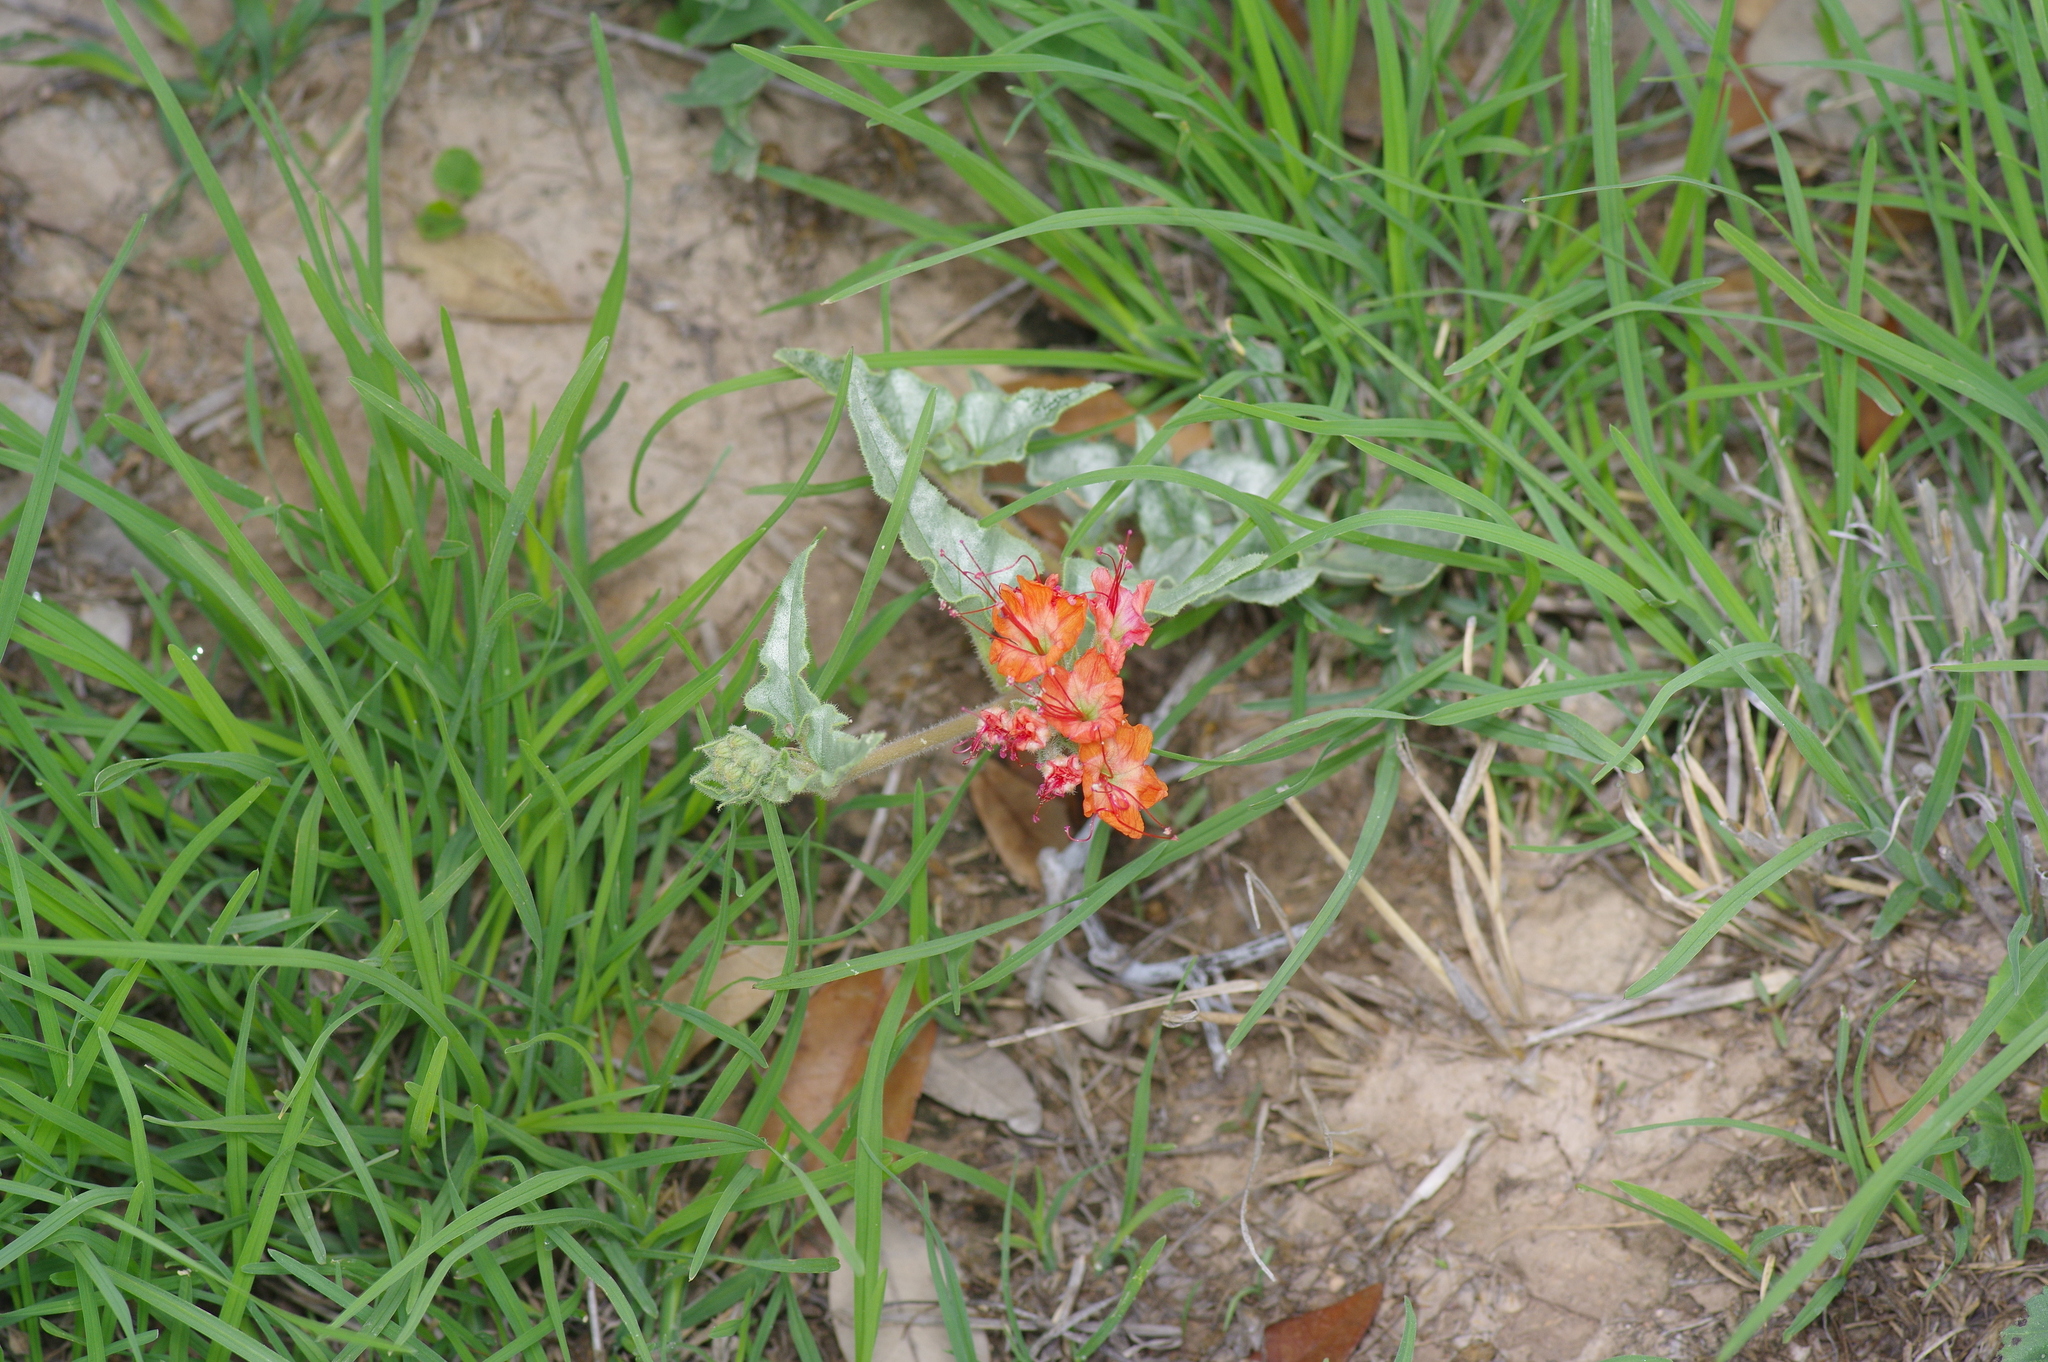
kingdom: Plantae
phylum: Tracheophyta
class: Magnoliopsida
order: Caryophyllales
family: Nyctaginaceae
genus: Nyctaginia
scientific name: Nyctaginia capitata
